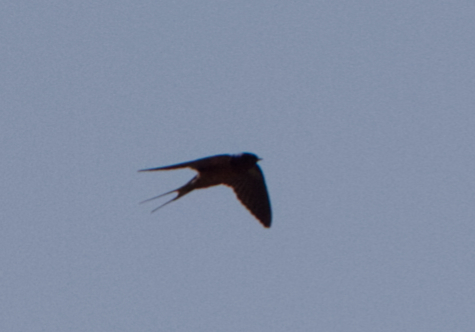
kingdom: Animalia
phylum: Chordata
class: Aves
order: Passeriformes
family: Hirundinidae
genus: Hirundo
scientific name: Hirundo rustica
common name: Barn swallow
